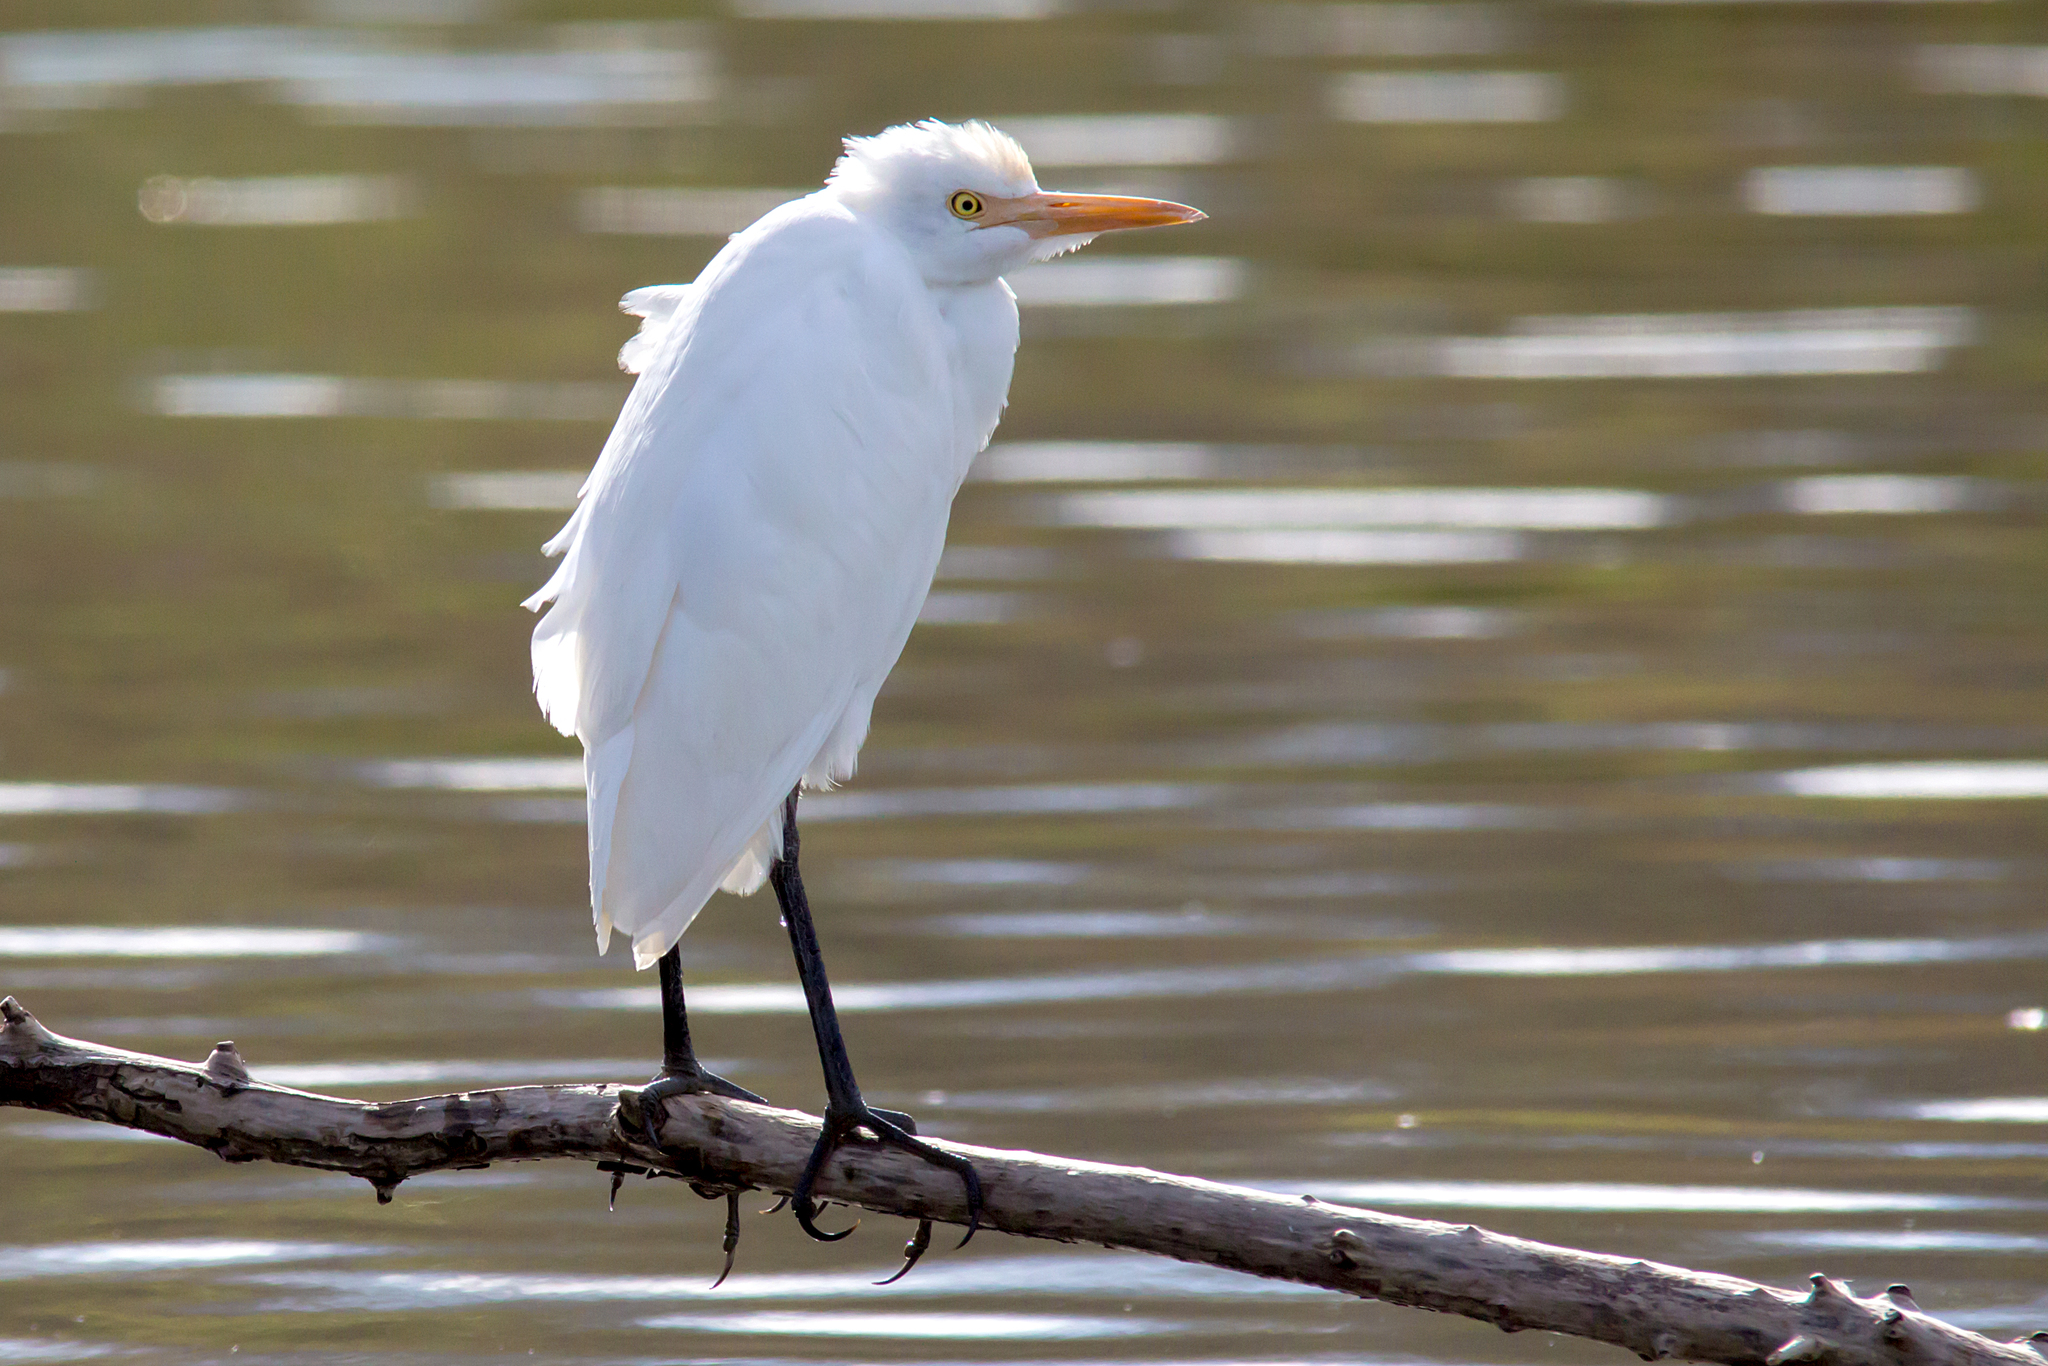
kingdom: Animalia
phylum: Chordata
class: Aves
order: Pelecaniformes
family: Ardeidae
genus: Bubulcus
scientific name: Bubulcus coromandus
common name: Eastern cattle egret
